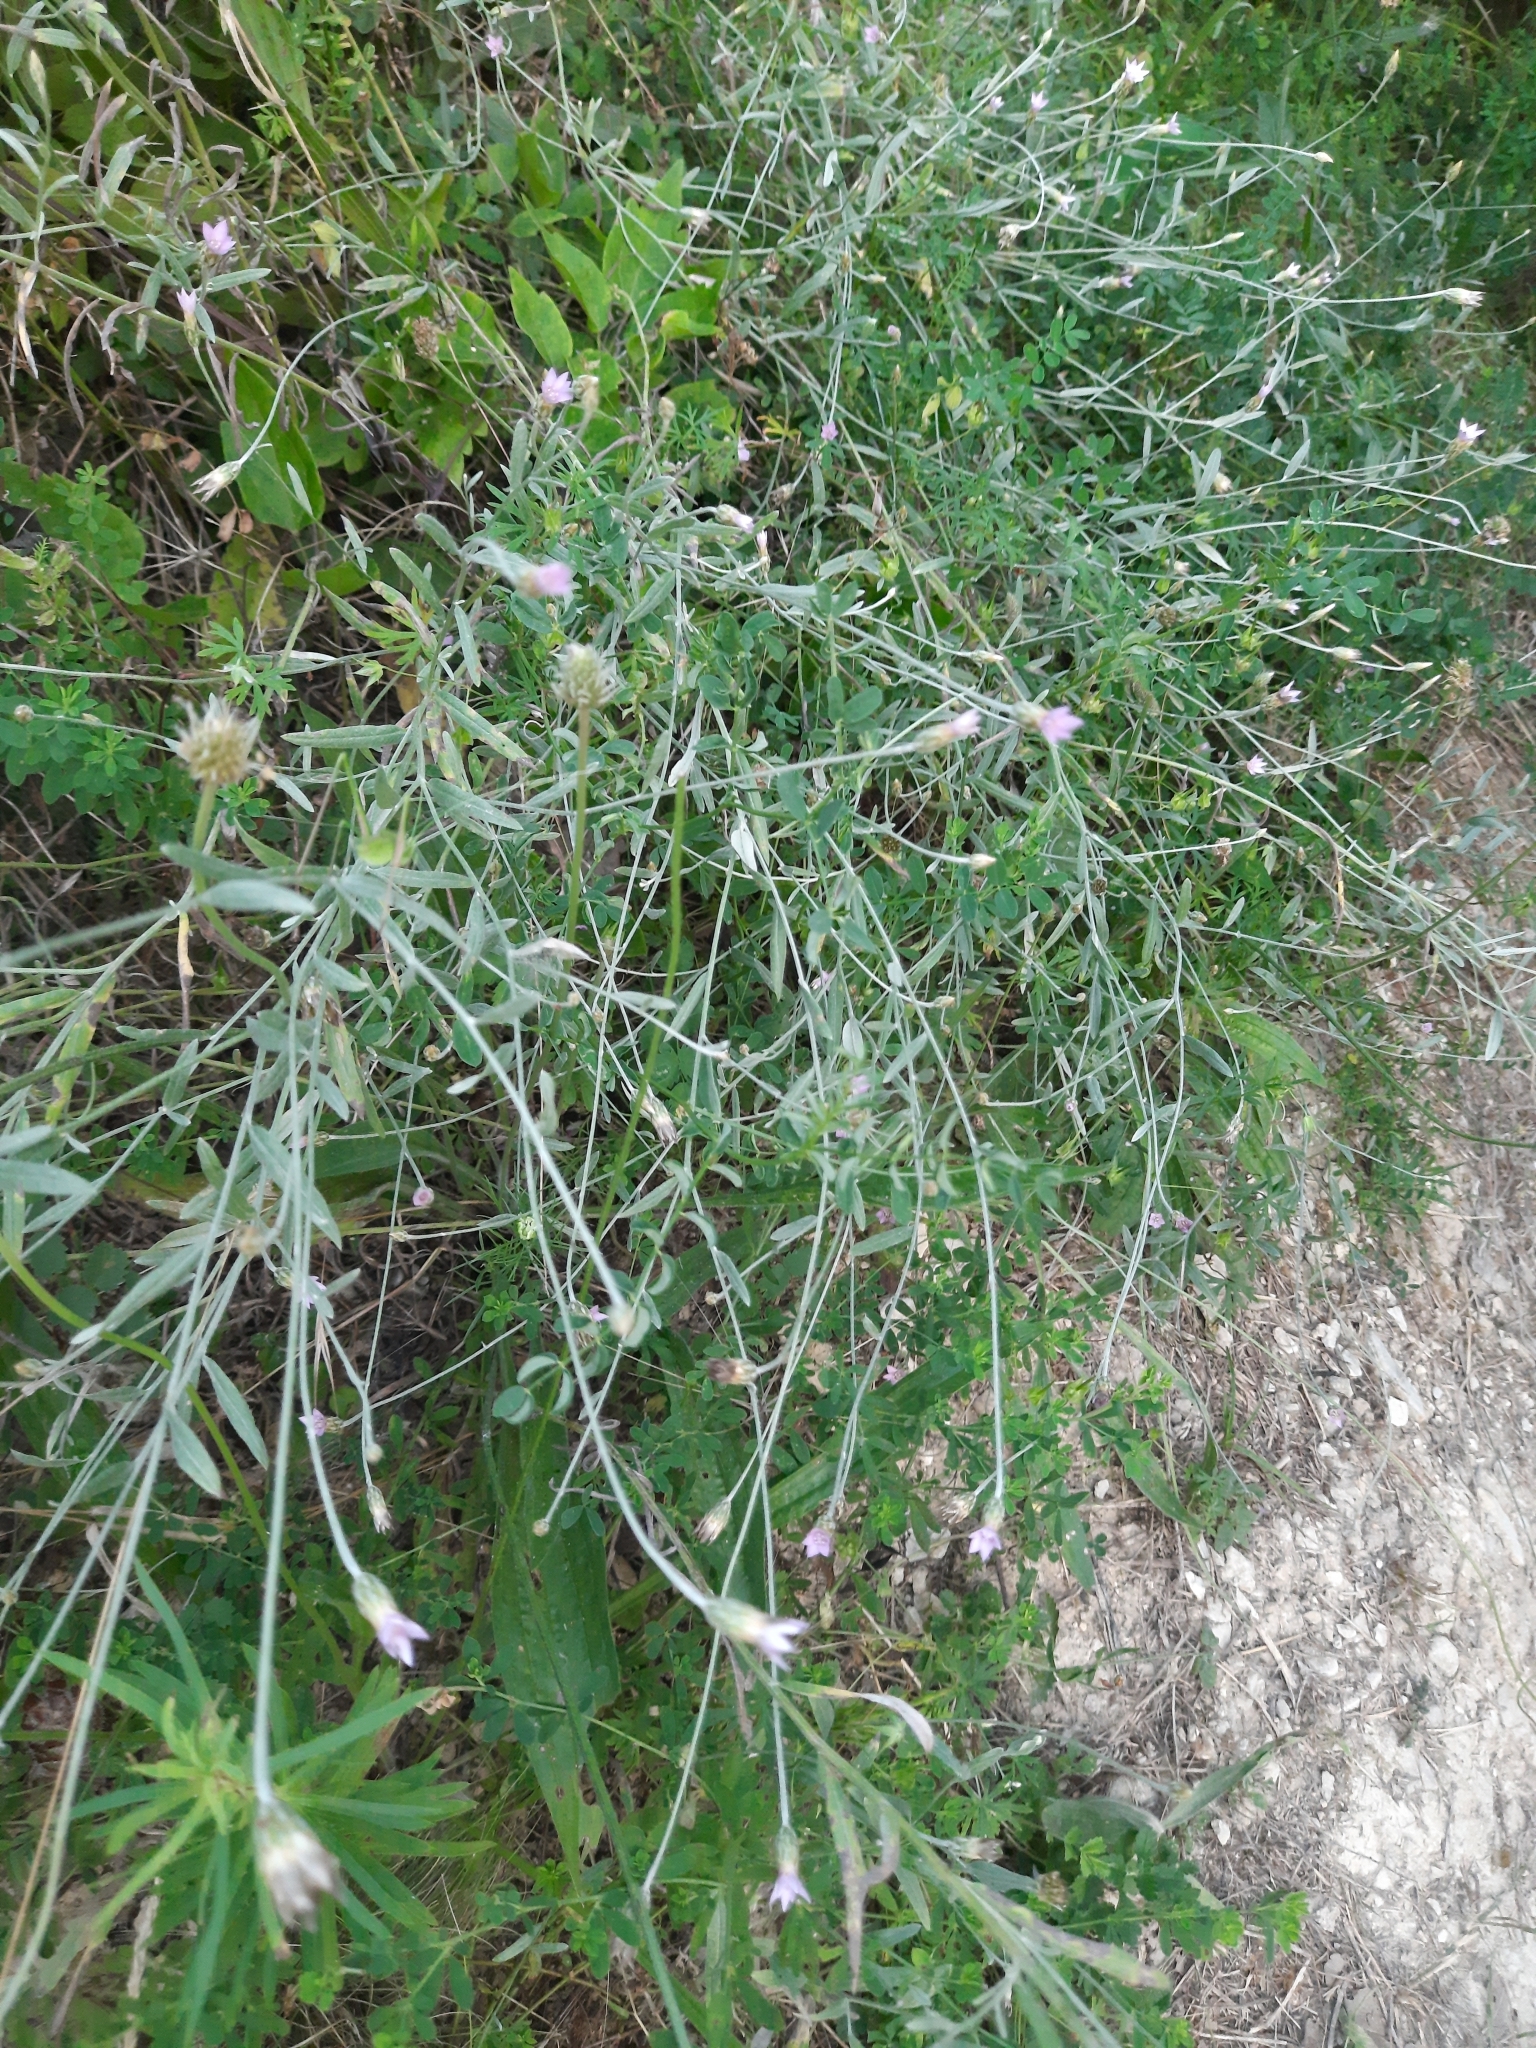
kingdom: Plantae
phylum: Tracheophyta
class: Magnoliopsida
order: Asterales
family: Asteraceae
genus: Xeranthemum
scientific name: Xeranthemum cylindraceum
